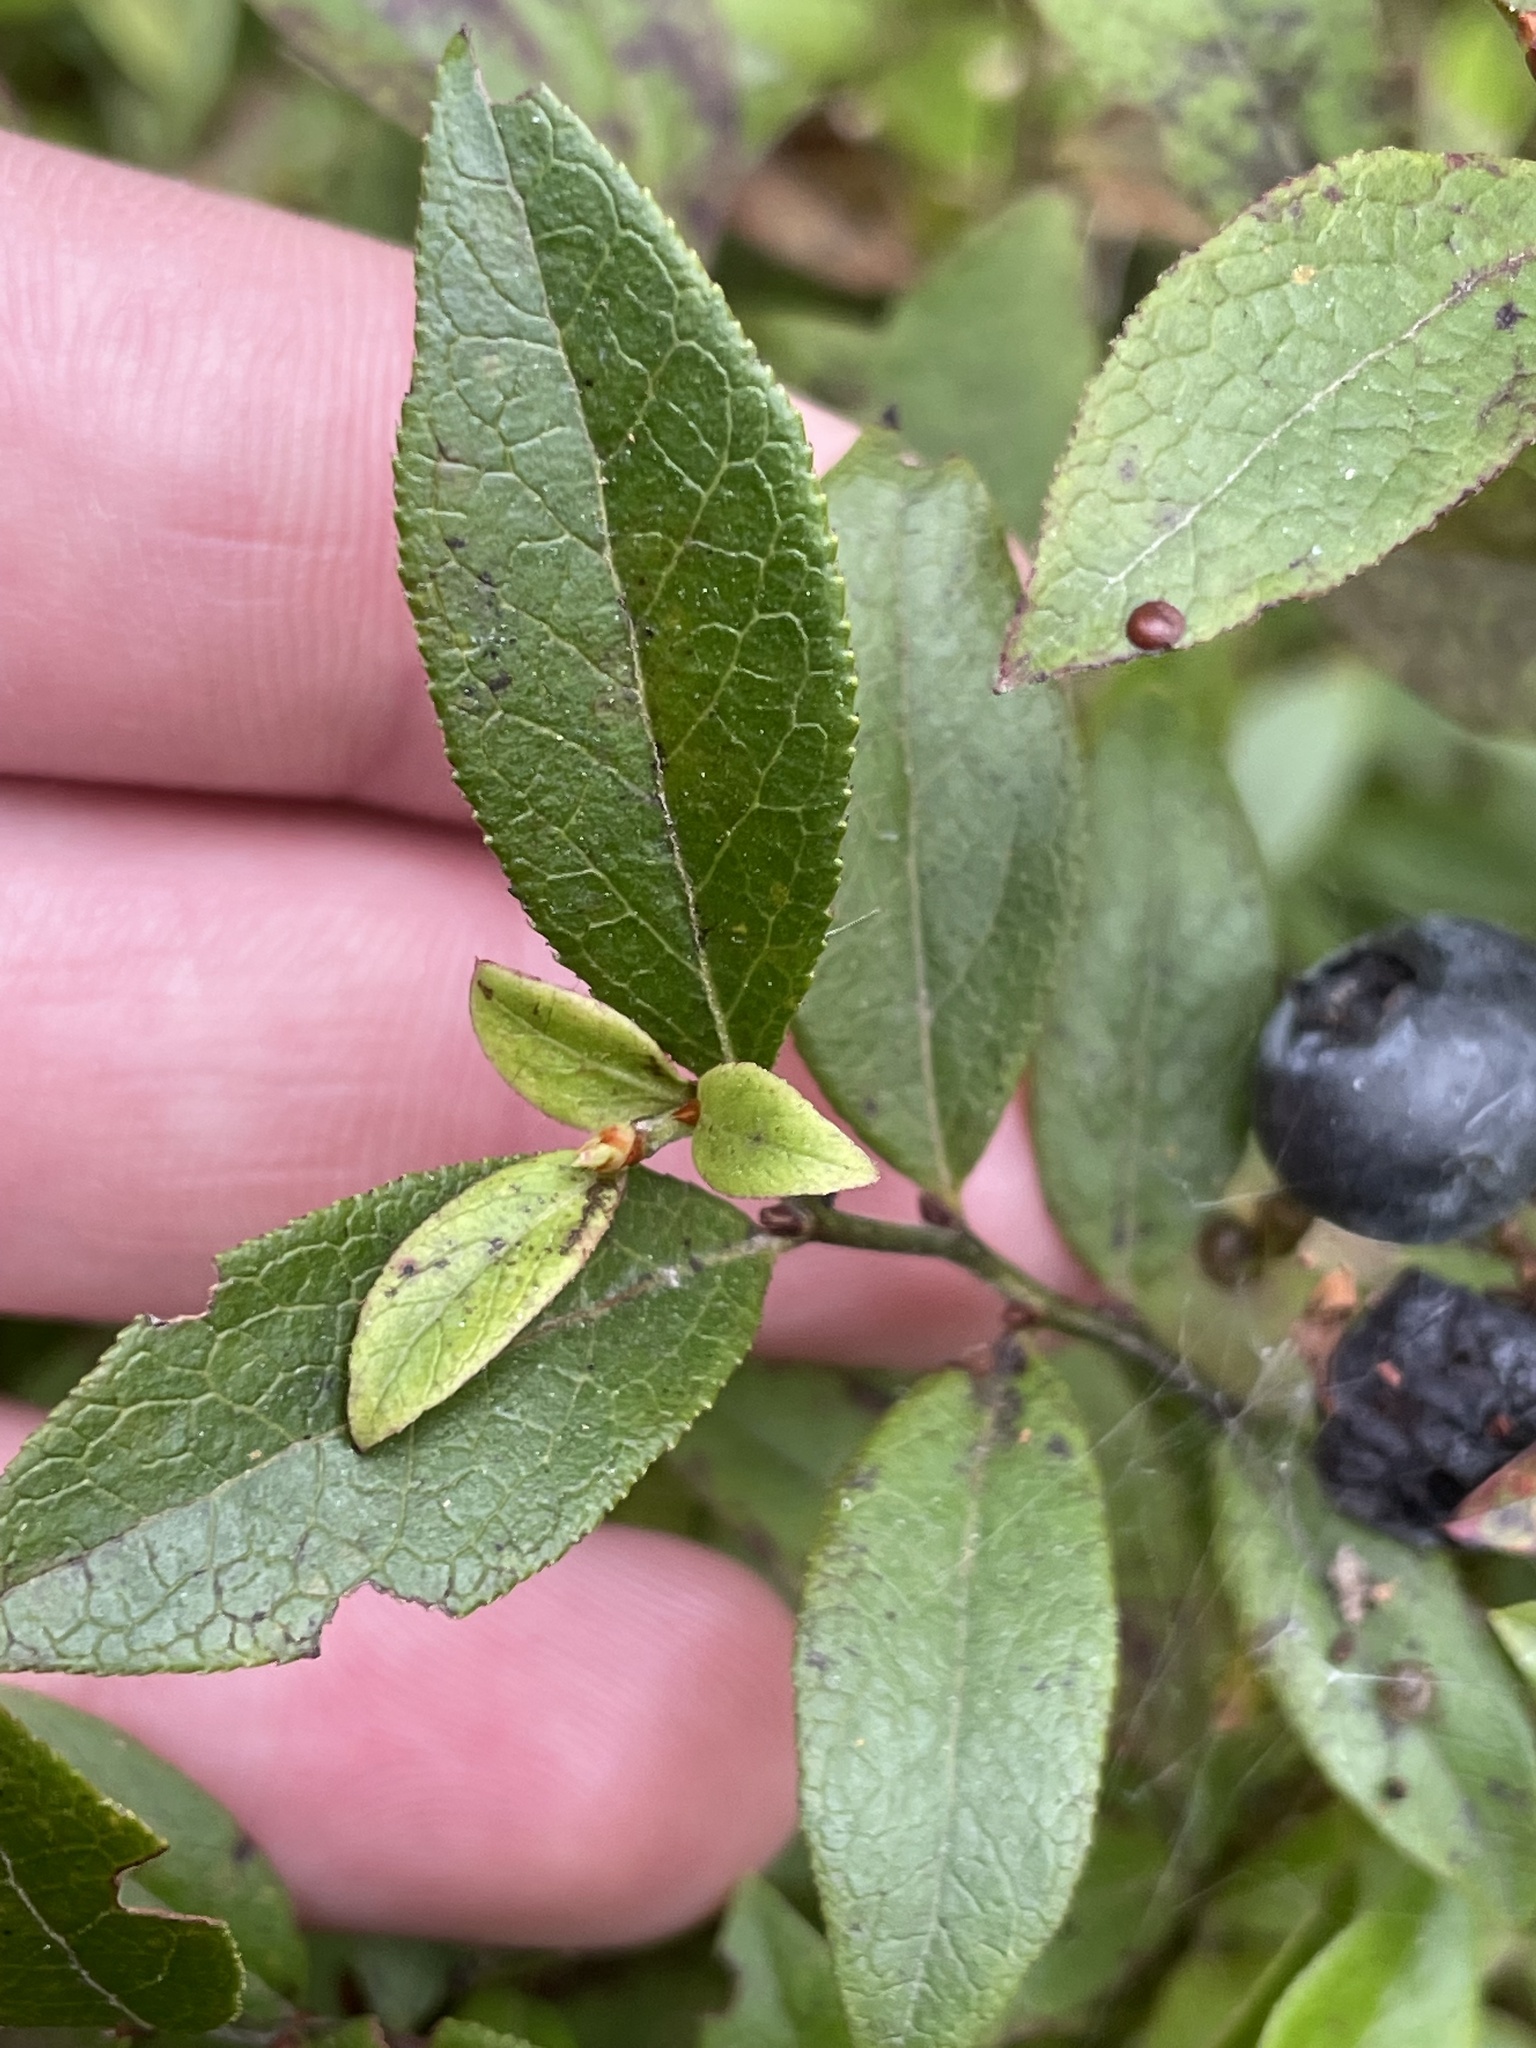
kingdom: Plantae
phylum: Tracheophyta
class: Magnoliopsida
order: Ericales
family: Ericaceae
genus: Vaccinium
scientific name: Vaccinium angustifolium
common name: Early lowbush blueberry
